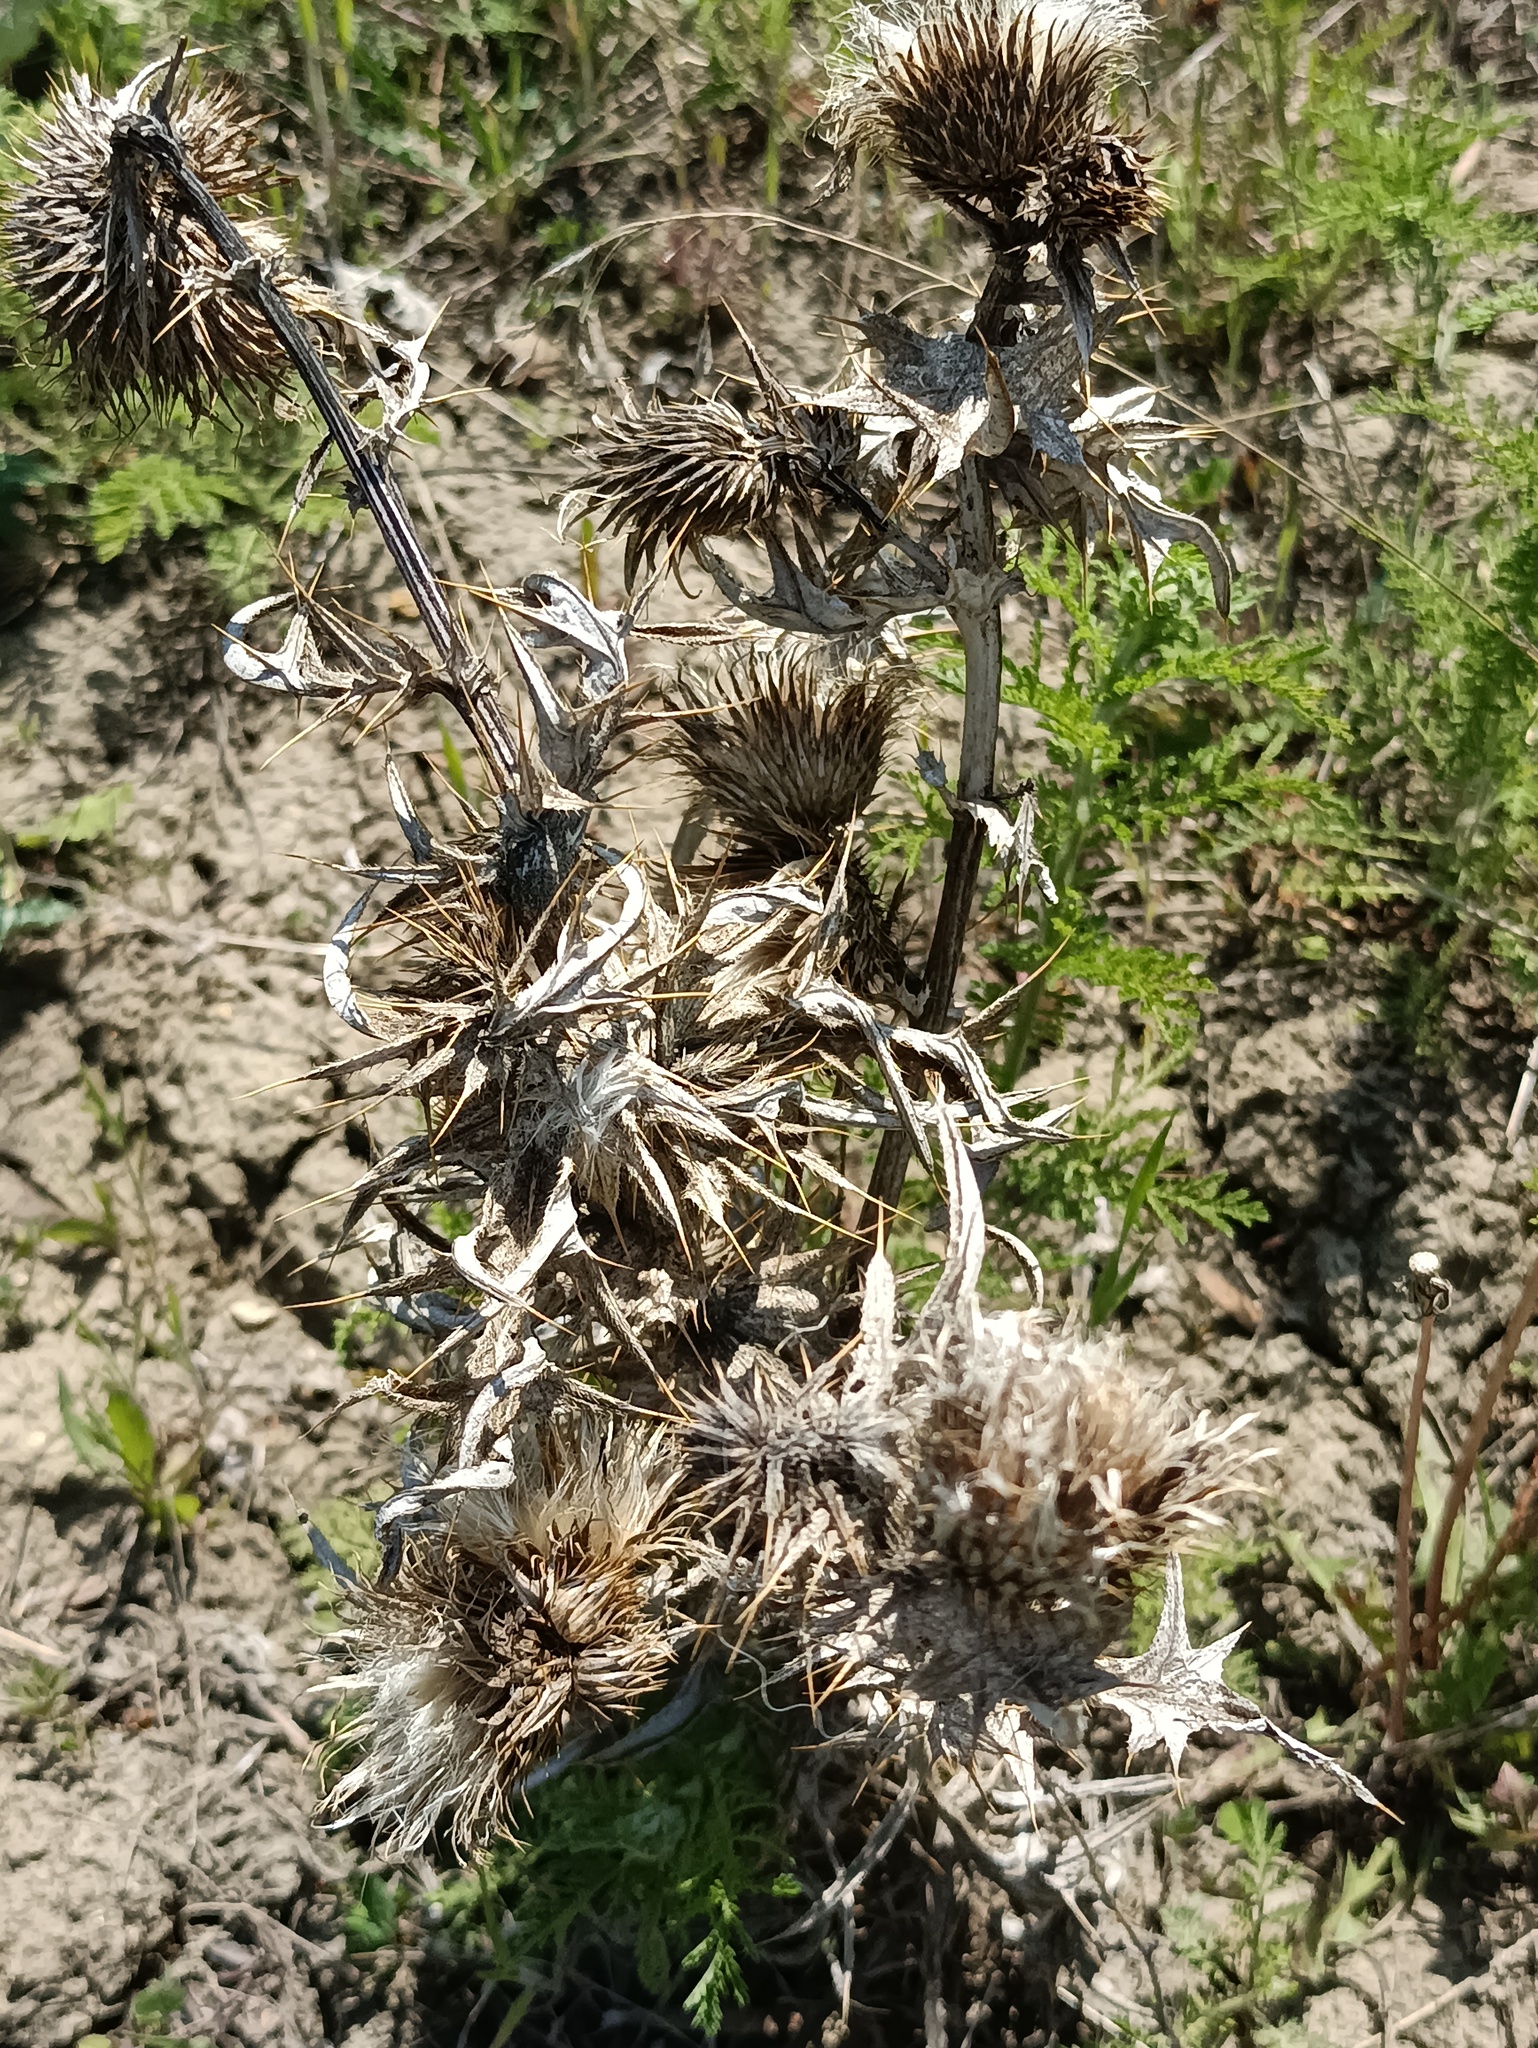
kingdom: Plantae
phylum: Tracheophyta
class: Magnoliopsida
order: Asterales
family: Asteraceae
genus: Cirsium
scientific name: Cirsium vulgare
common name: Bull thistle
